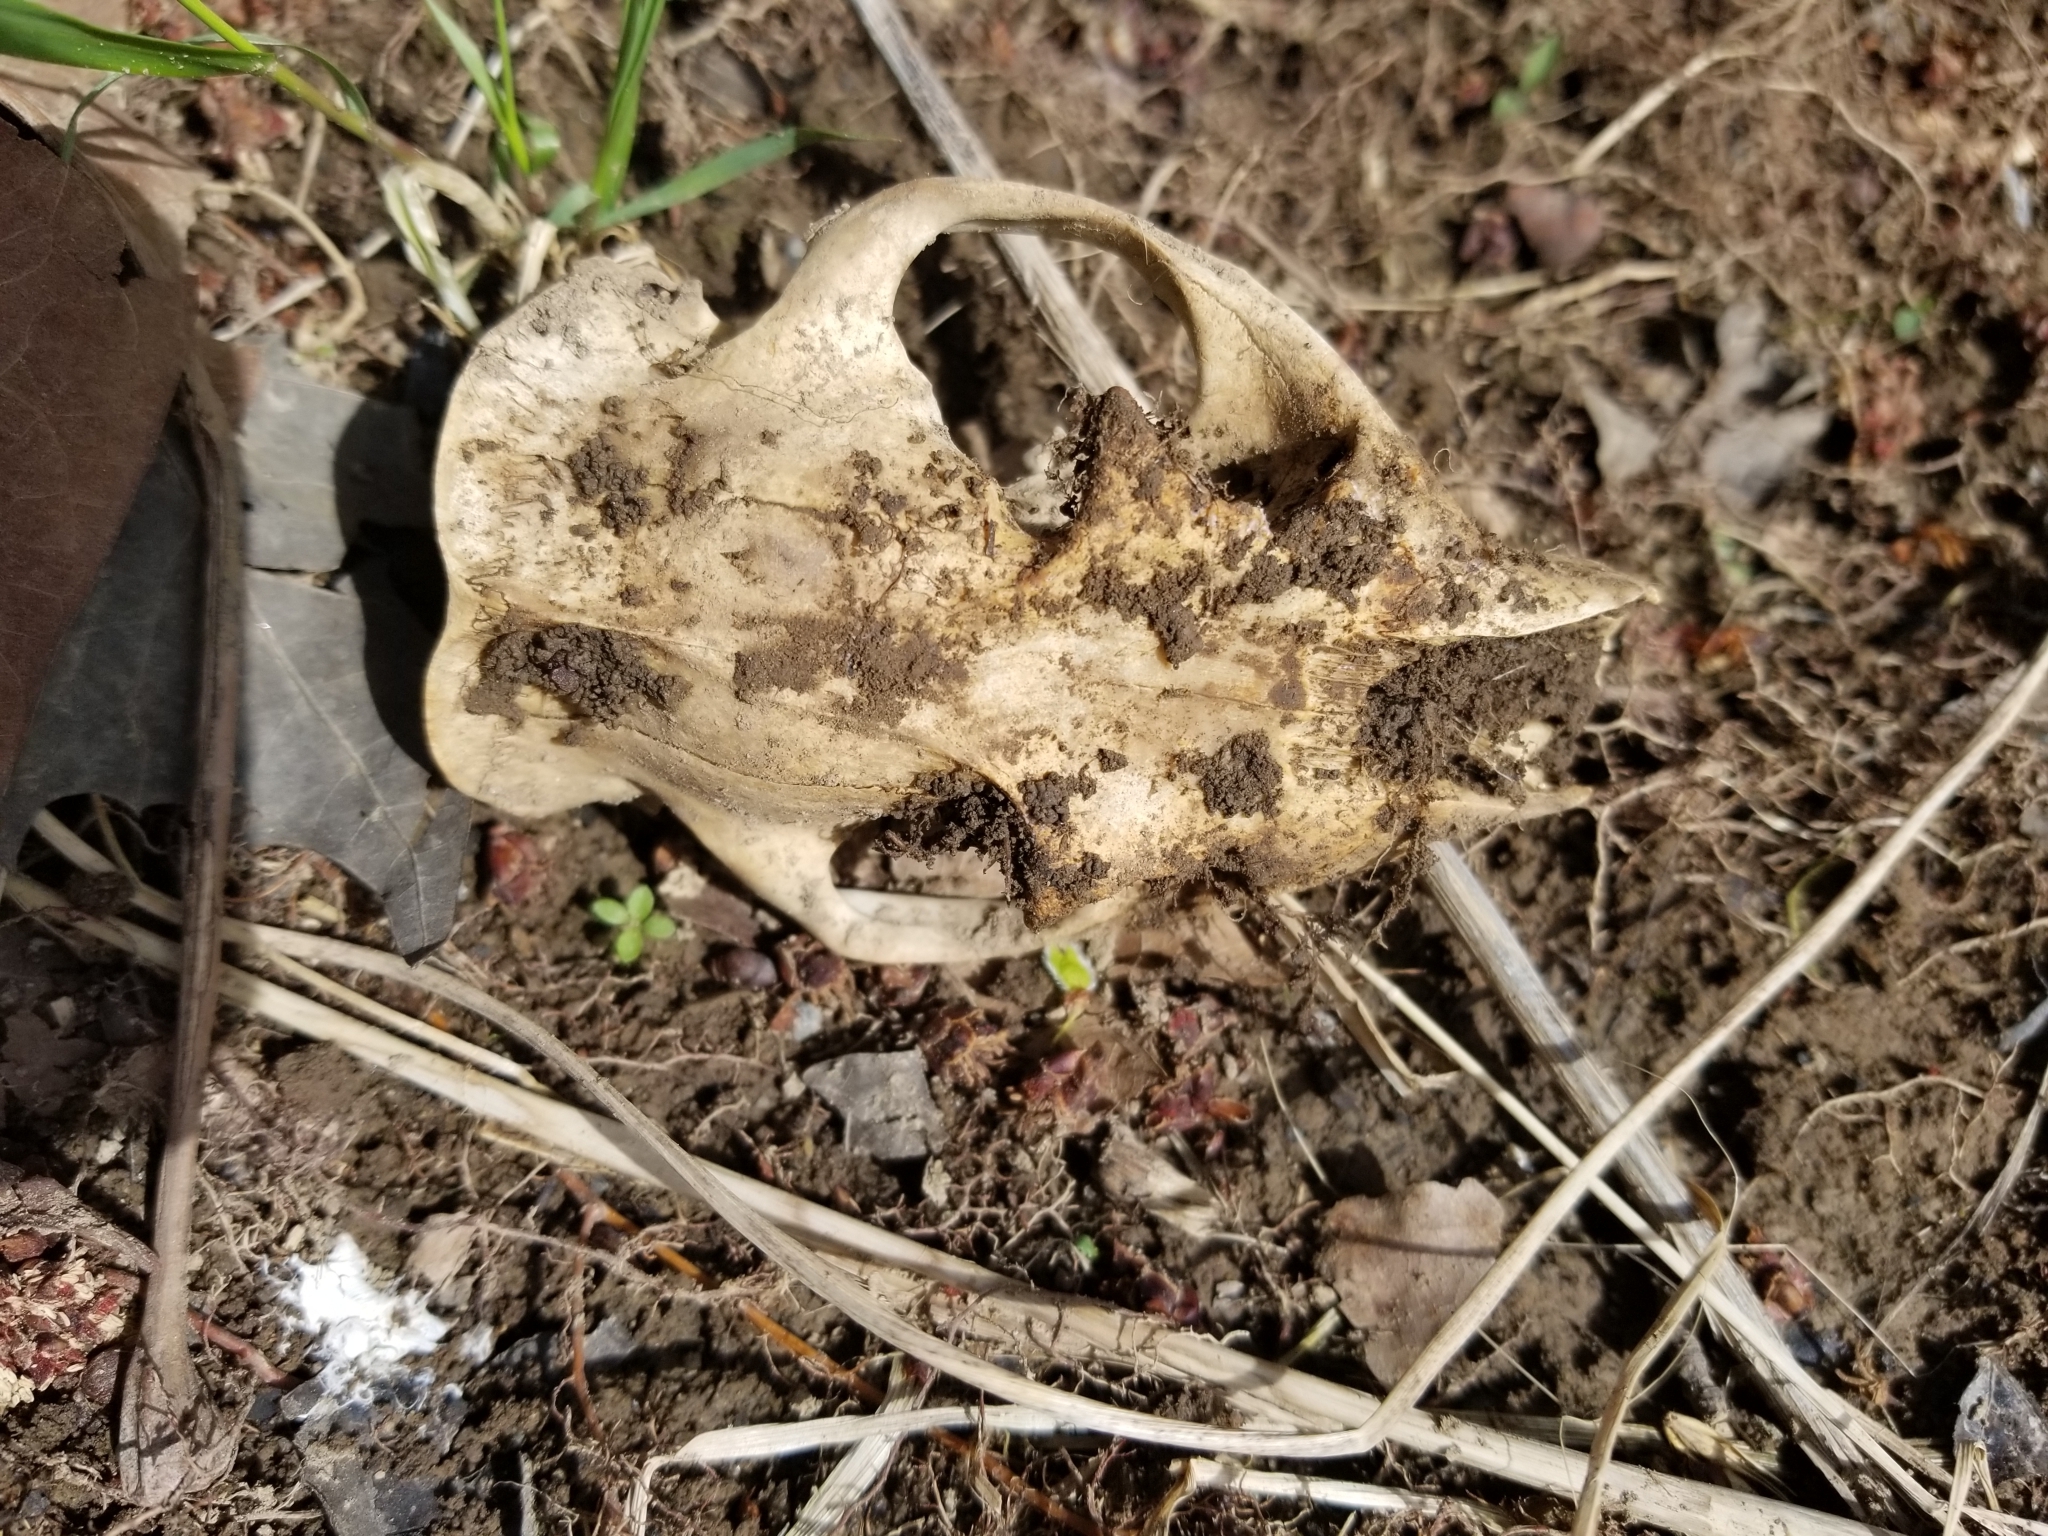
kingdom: Animalia
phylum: Chordata
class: Mammalia
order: Rodentia
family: Sciuridae
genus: Marmota
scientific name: Marmota monax
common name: Groundhog
